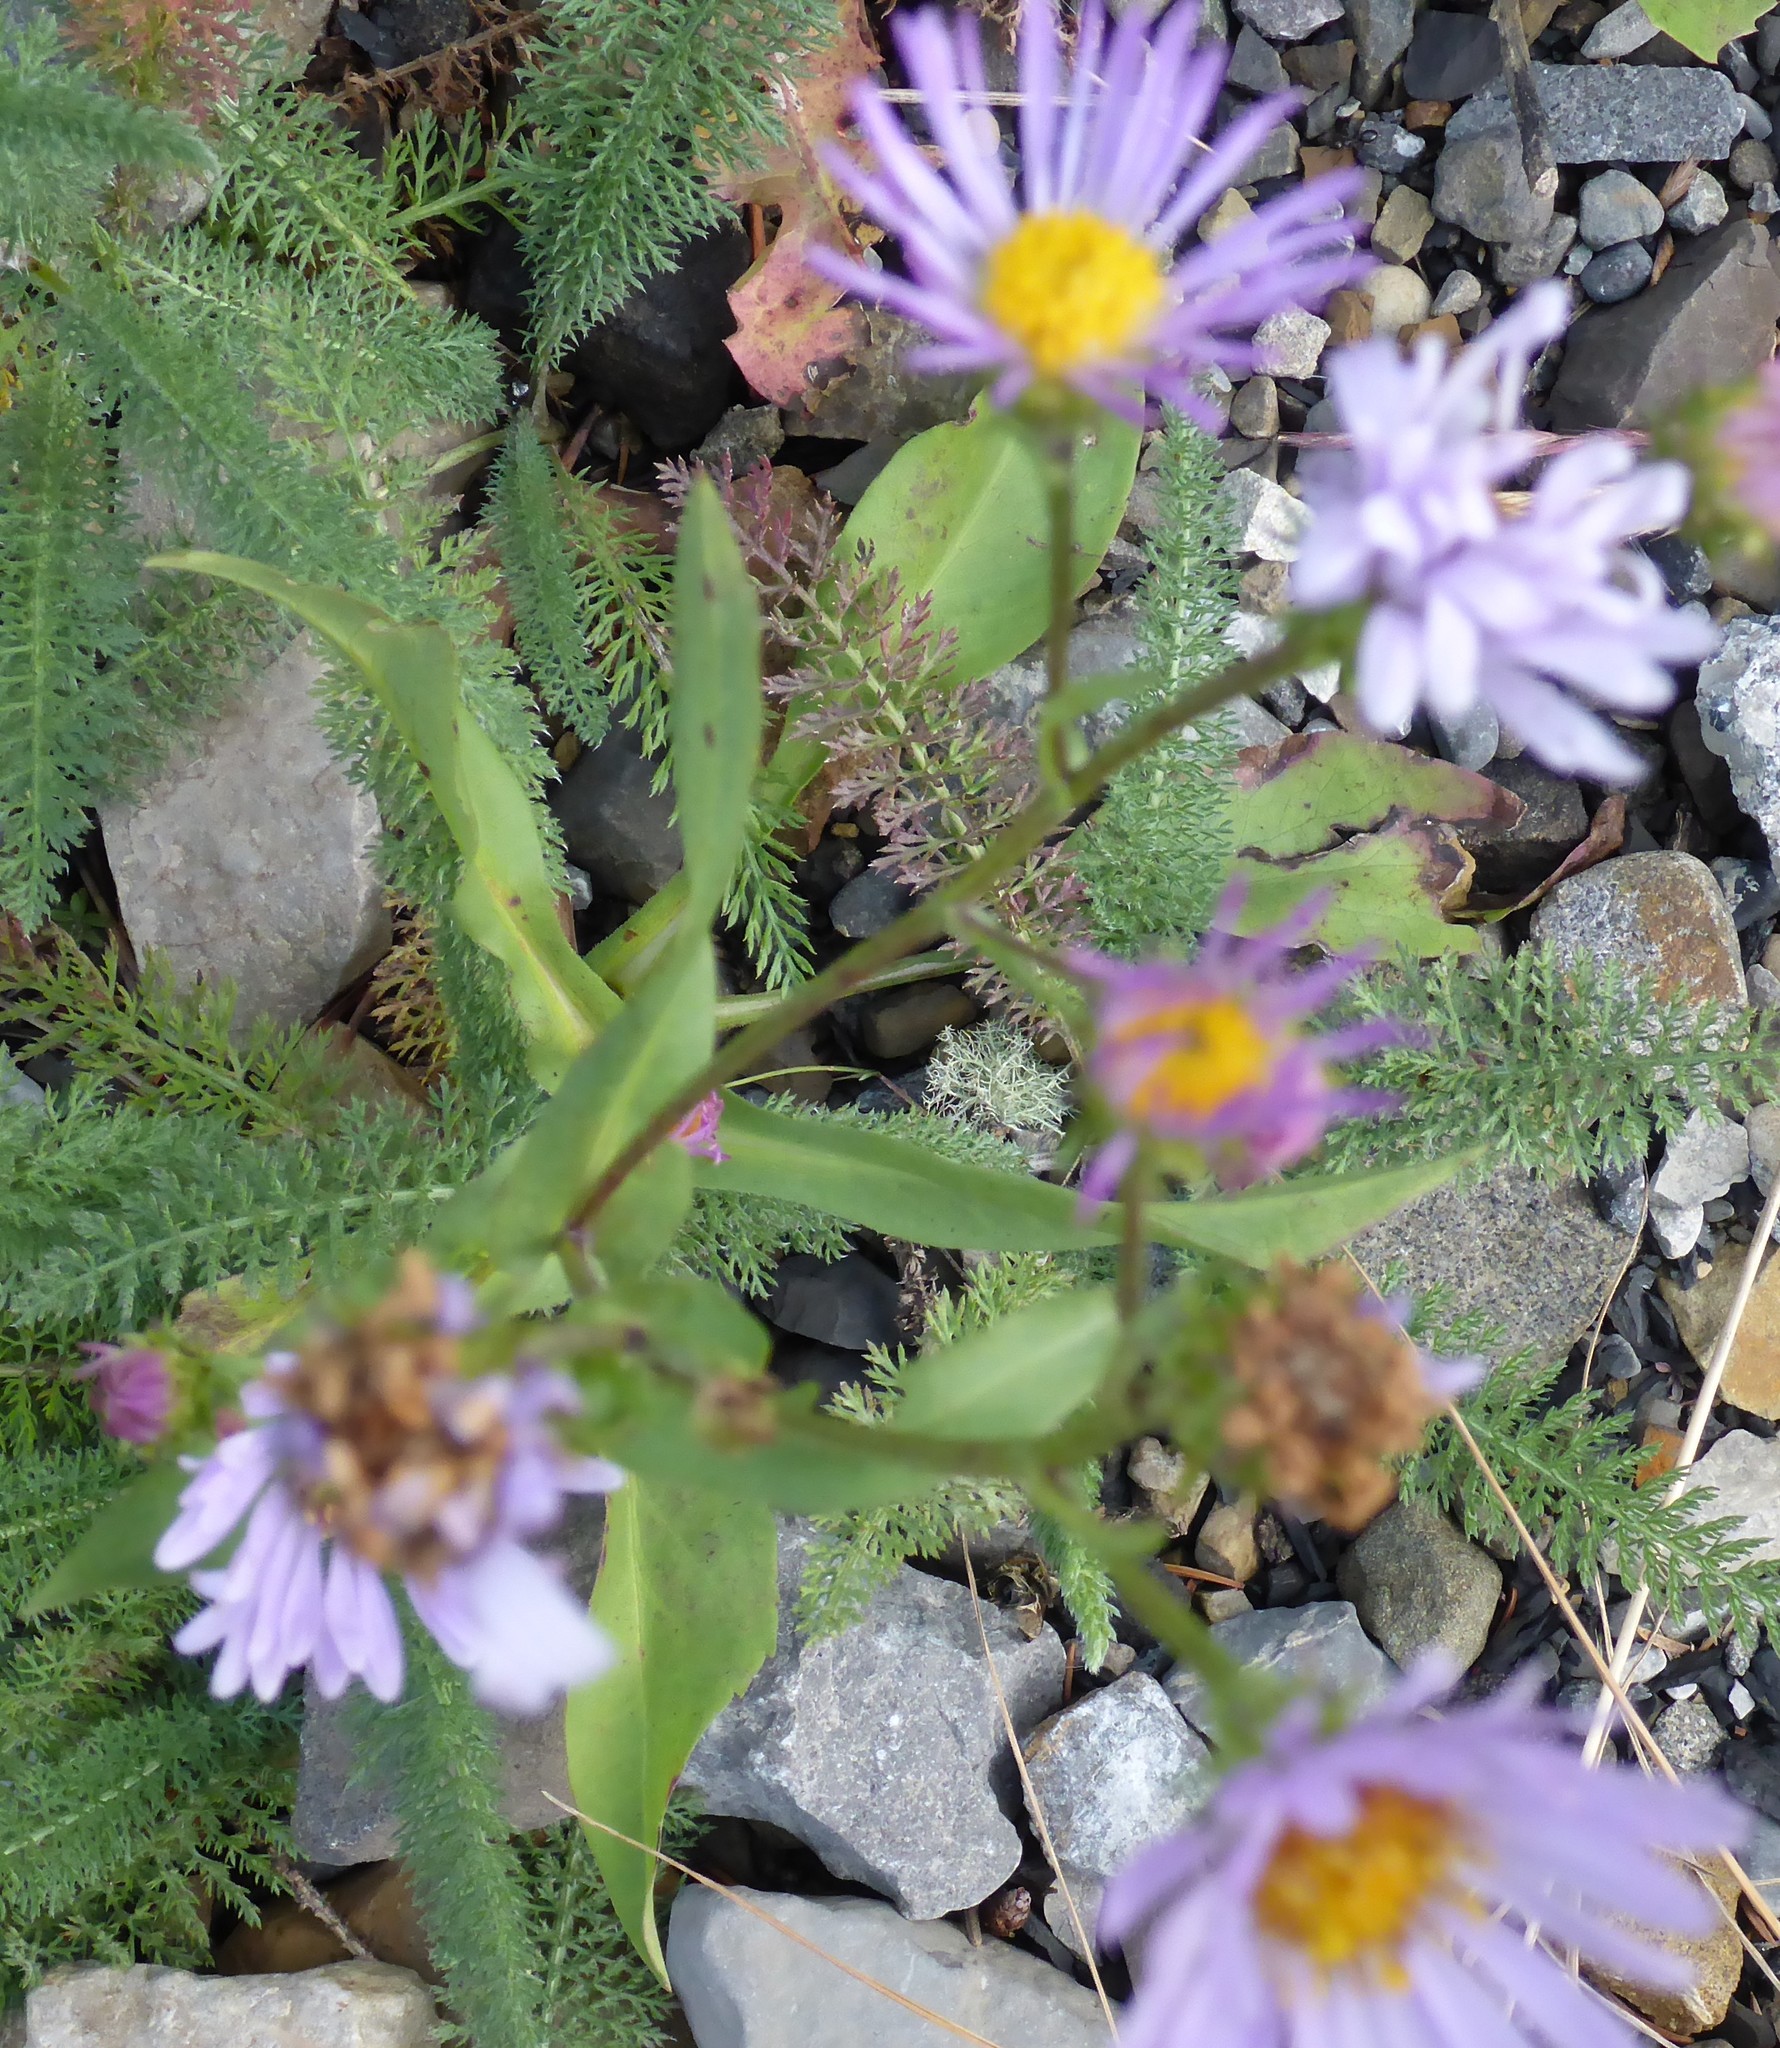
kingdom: Plantae
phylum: Tracheophyta
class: Magnoliopsida
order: Asterales
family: Asteraceae
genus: Symphyotrichum
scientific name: Symphyotrichum laeve
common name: Glaucous aster
